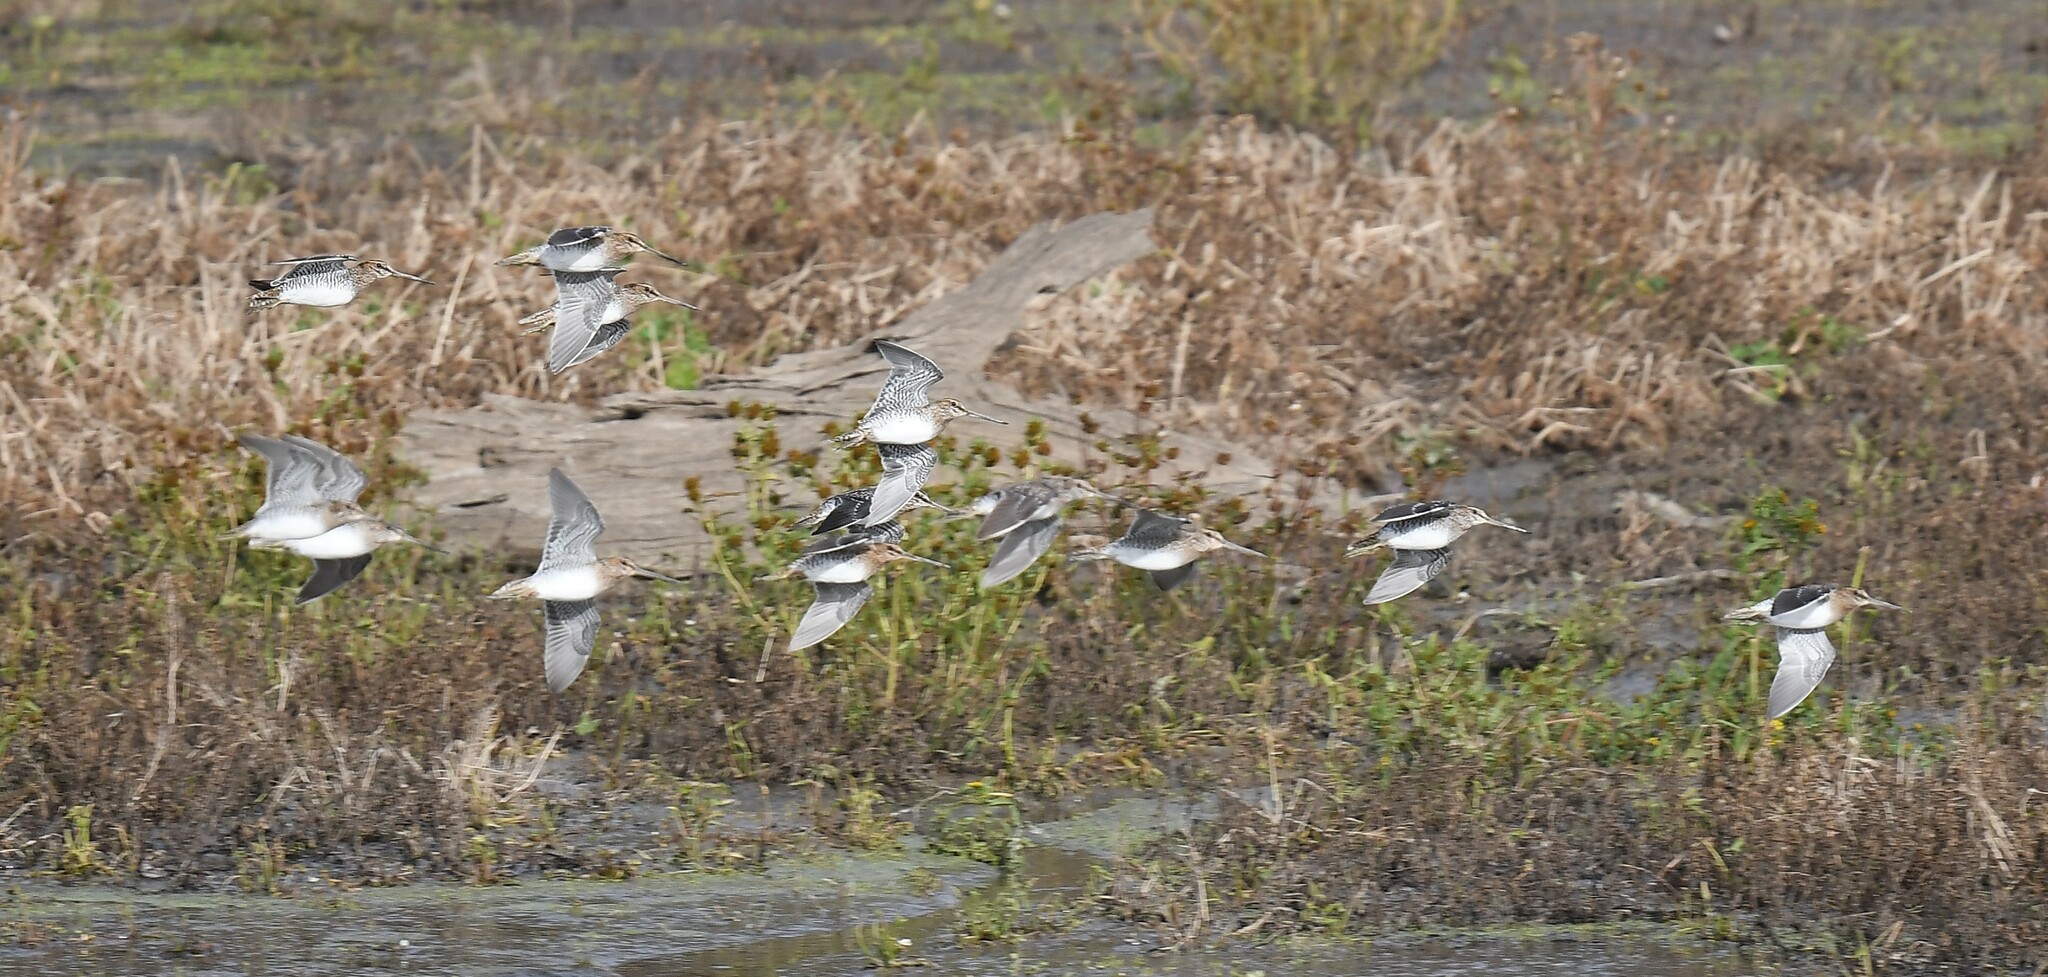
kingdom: Animalia
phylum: Chordata
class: Aves
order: Charadriiformes
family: Scolopacidae
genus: Gallinago
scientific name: Gallinago delicata
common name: Wilson's snipe
